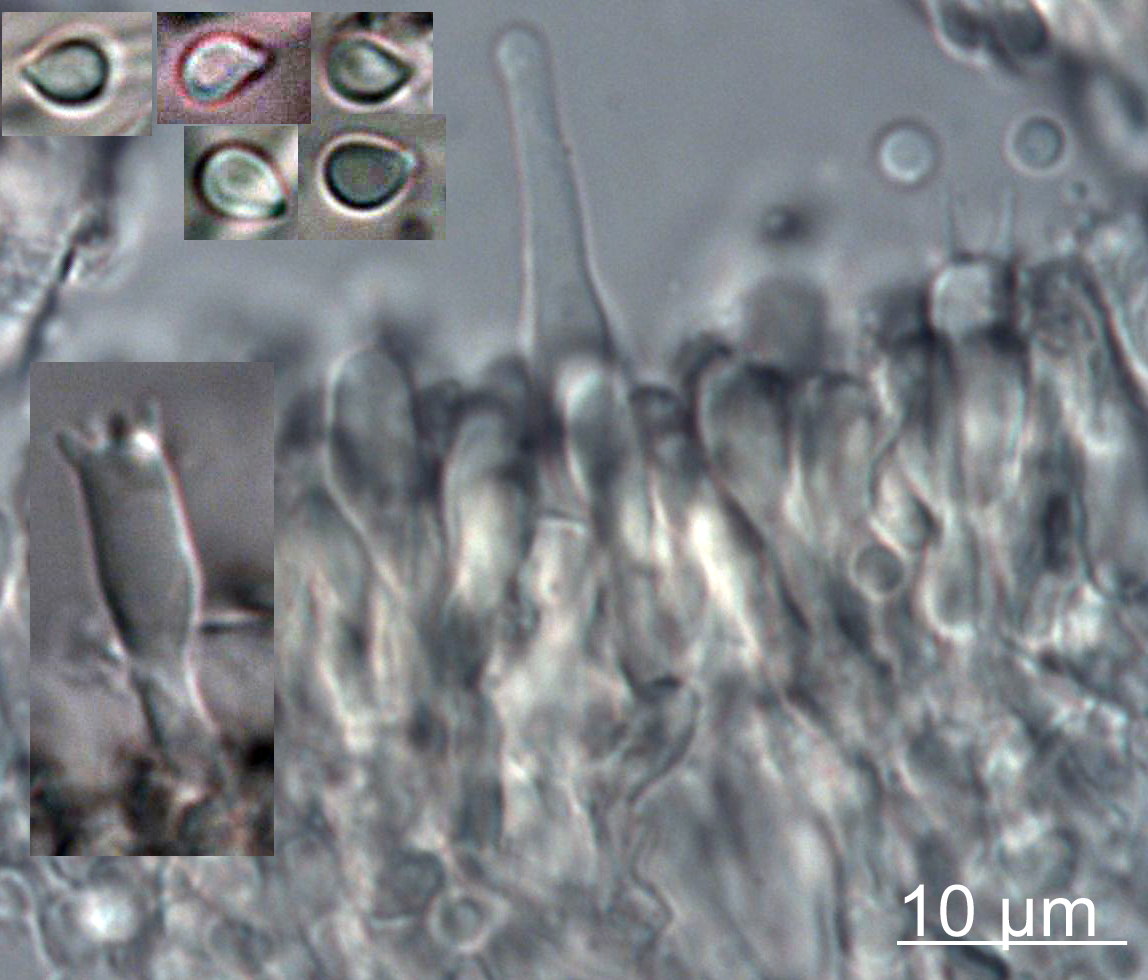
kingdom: Fungi
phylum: Basidiomycota
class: Agaricomycetes
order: Hymenochaetales
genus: Muscinupta
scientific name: Muscinupta laevis
